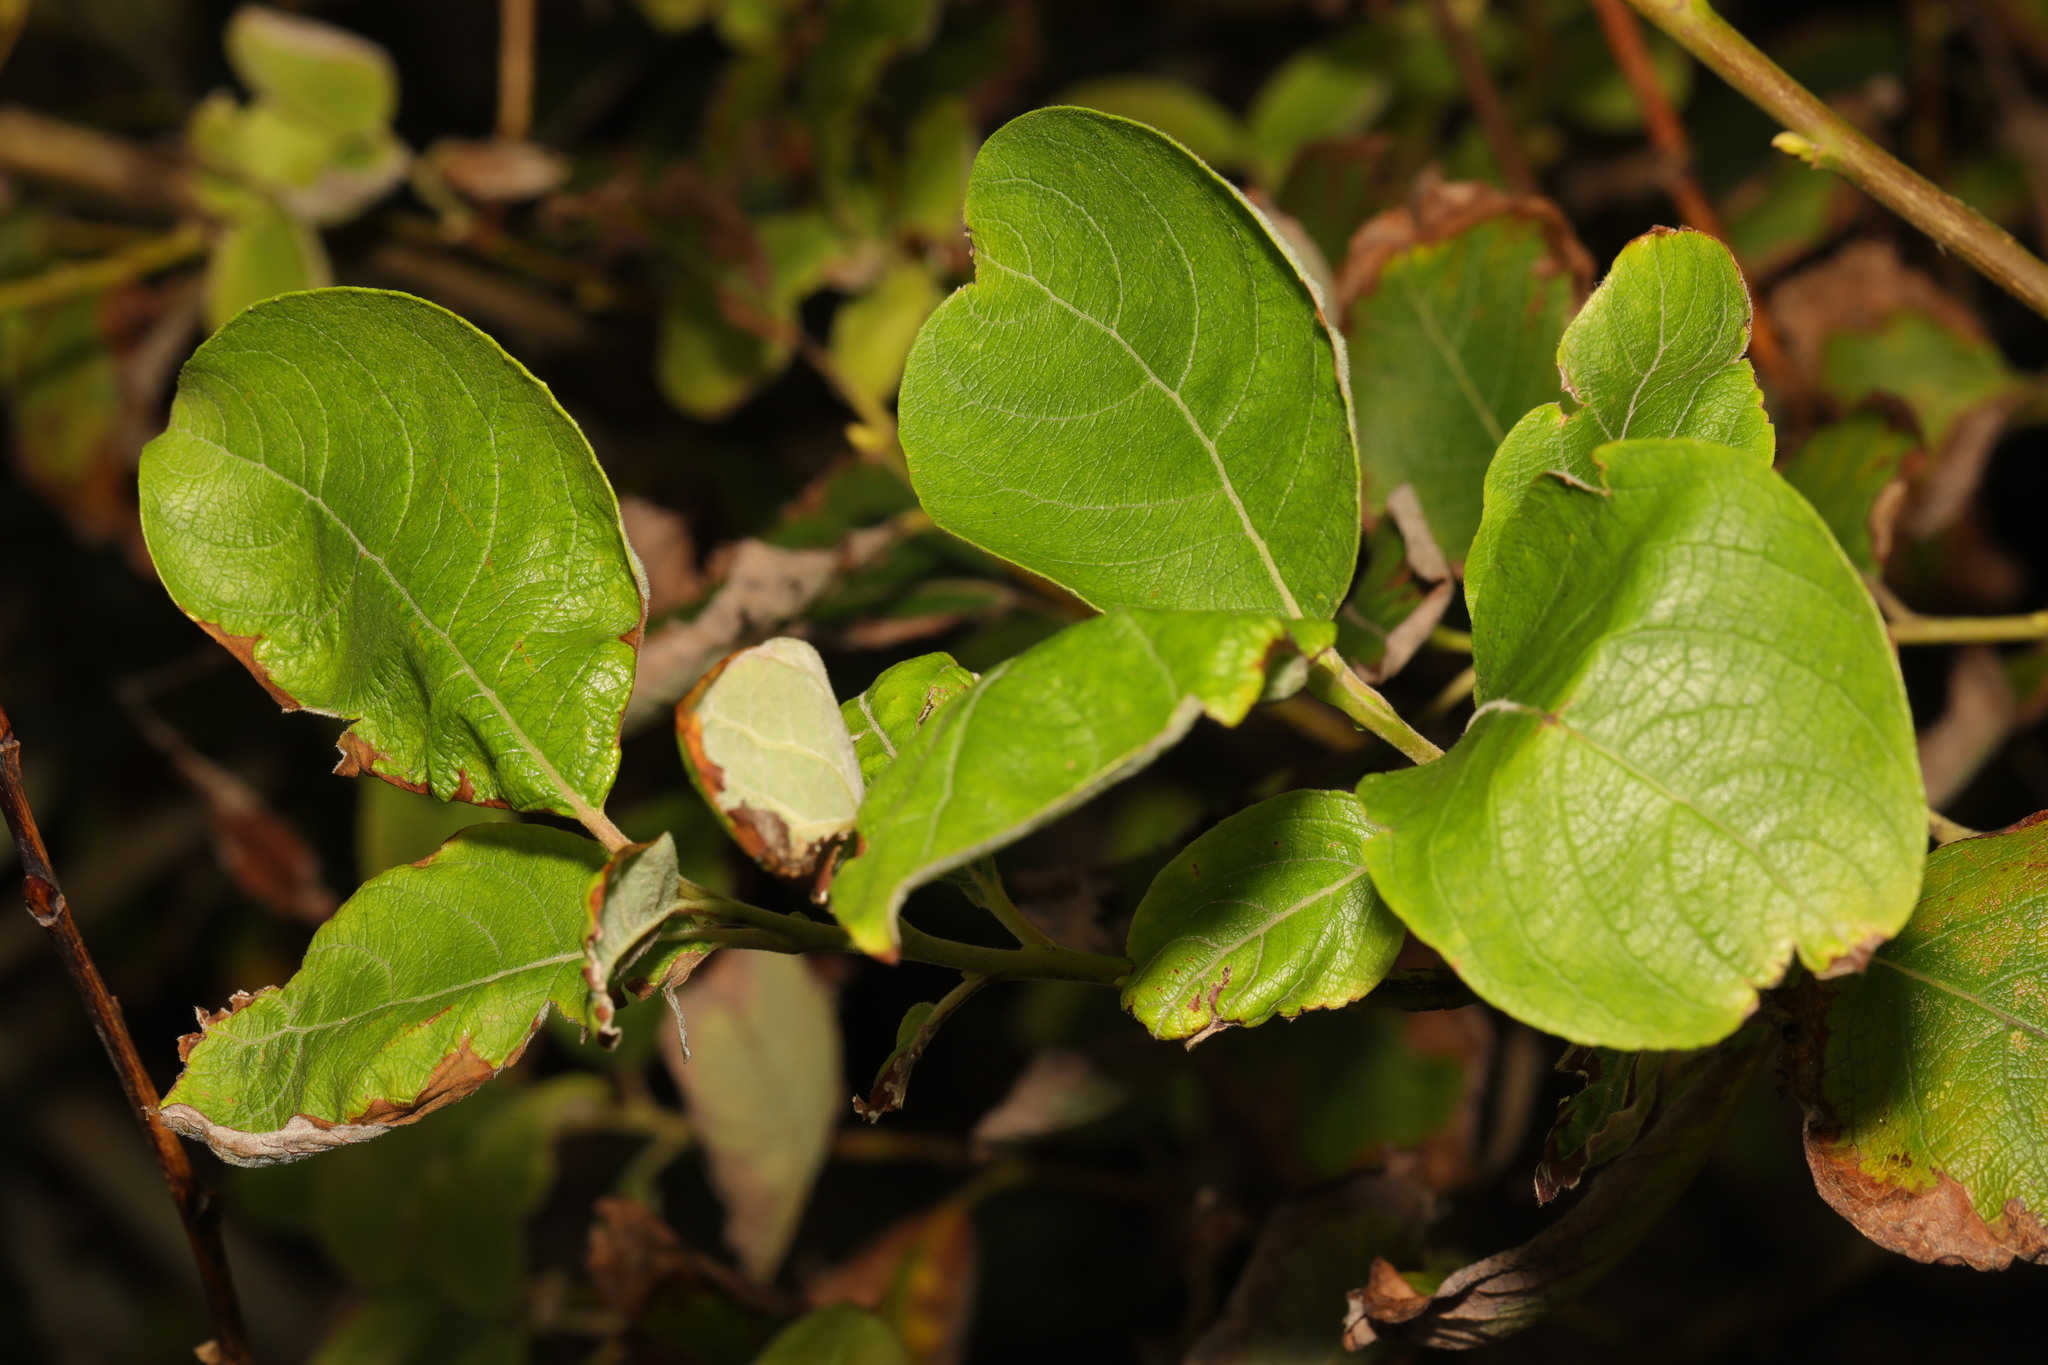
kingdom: Plantae
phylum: Tracheophyta
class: Magnoliopsida
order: Malpighiales
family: Salicaceae
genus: Salix
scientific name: Salix caprea
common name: Goat willow
